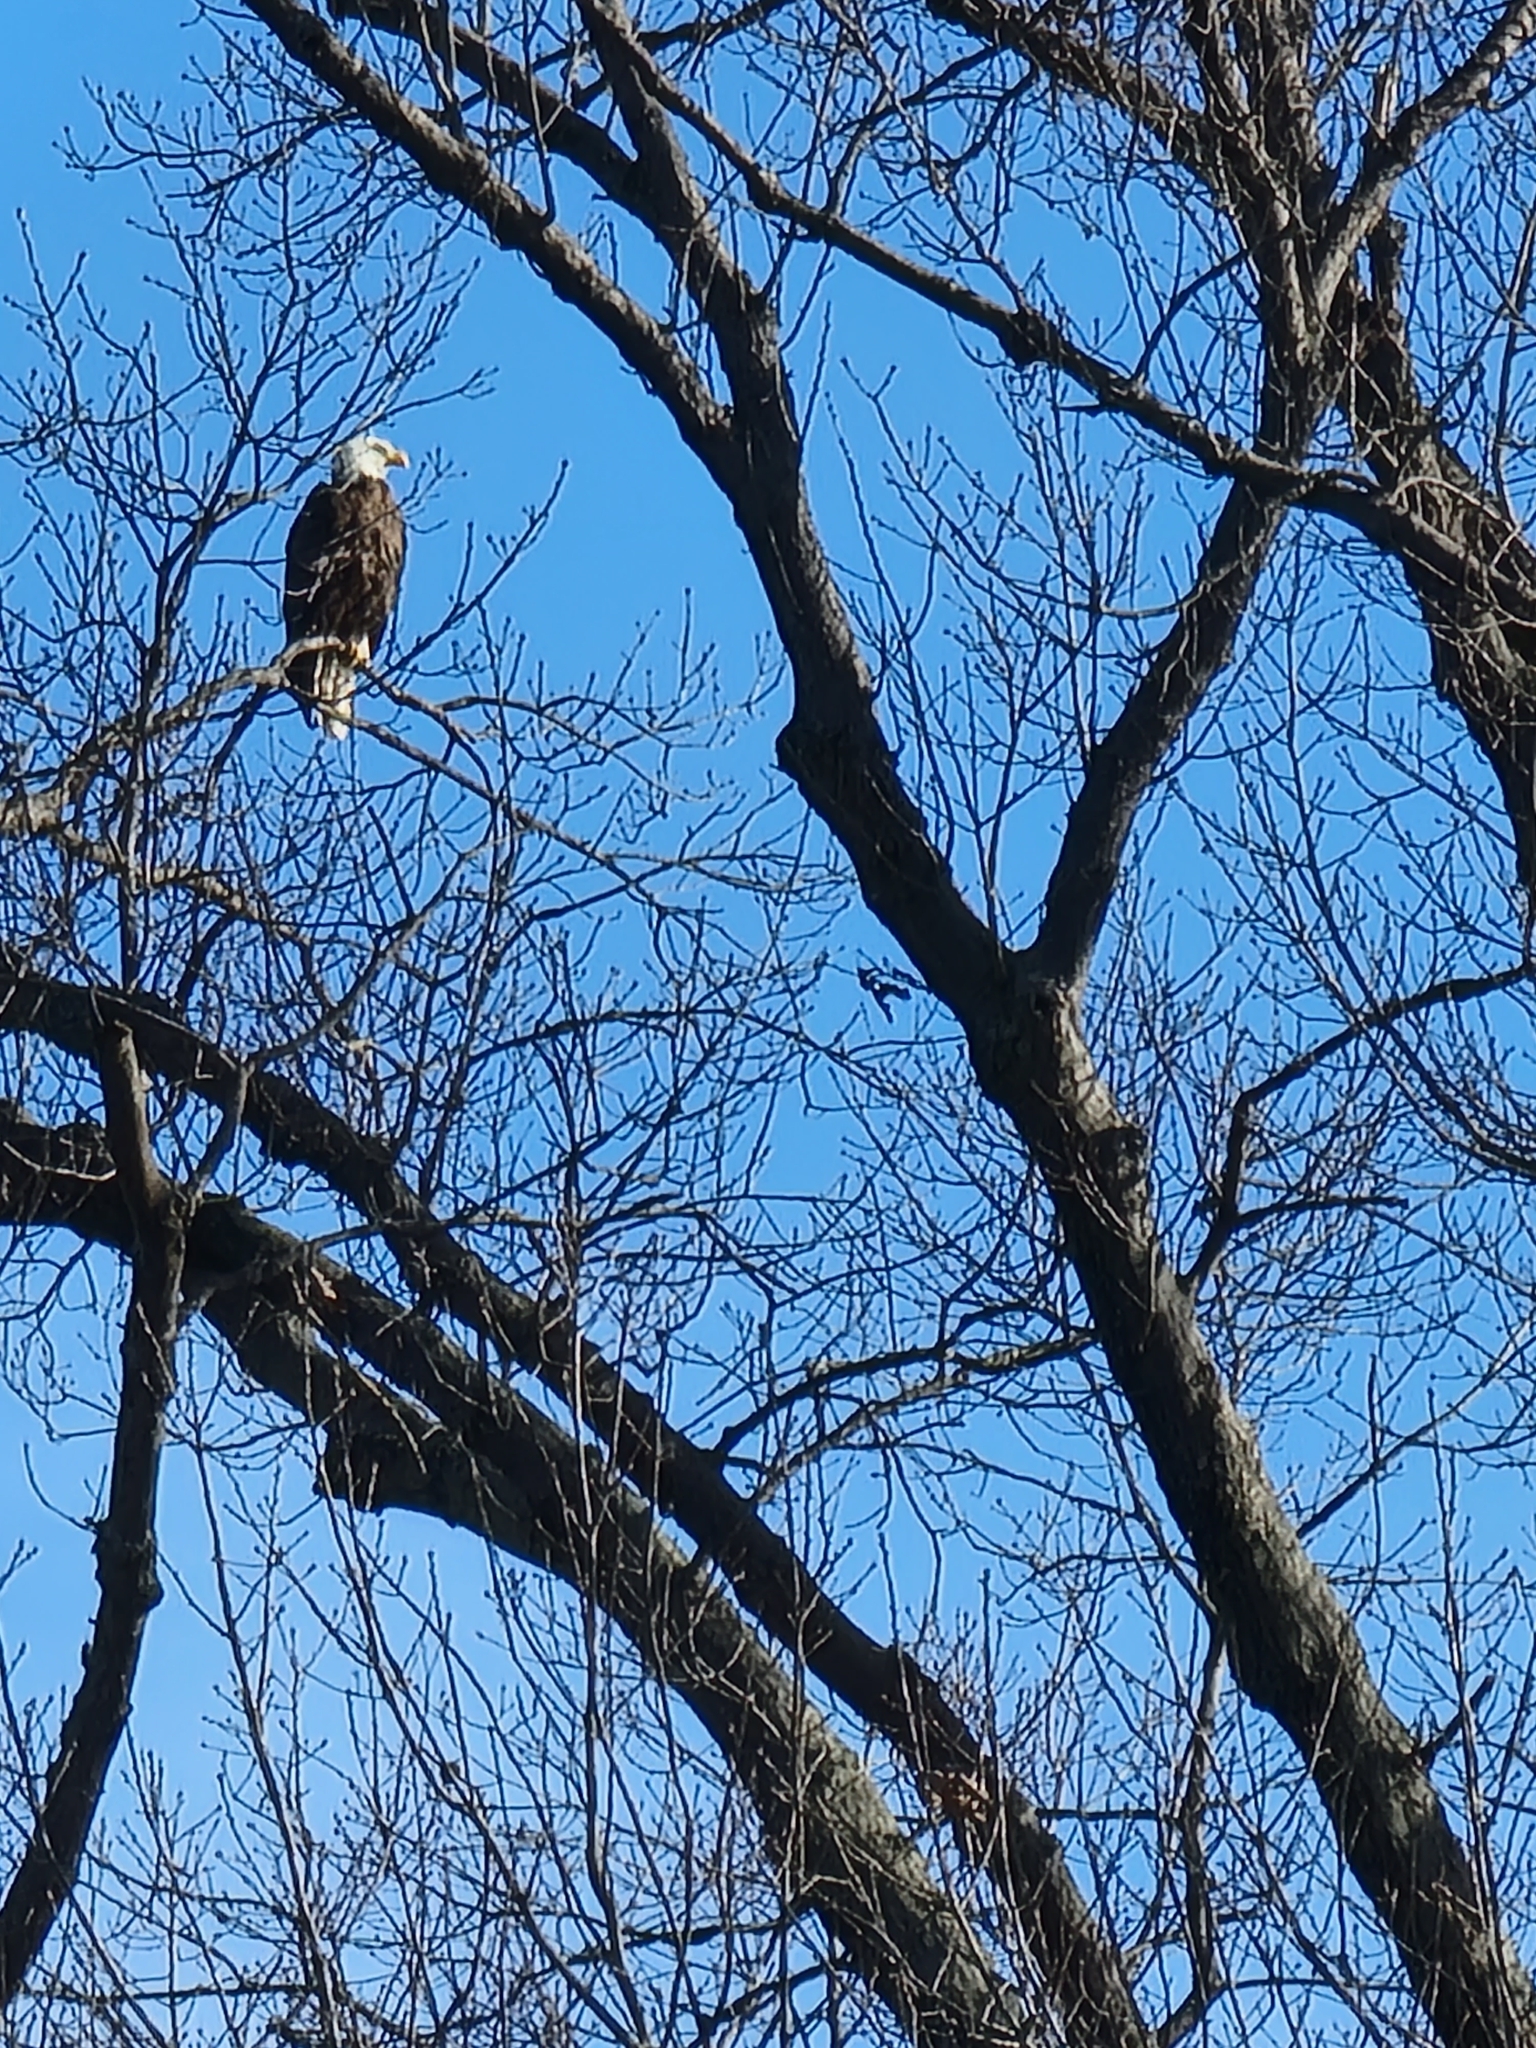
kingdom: Animalia
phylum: Chordata
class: Aves
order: Accipitriformes
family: Accipitridae
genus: Haliaeetus
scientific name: Haliaeetus leucocephalus
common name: Bald eagle
